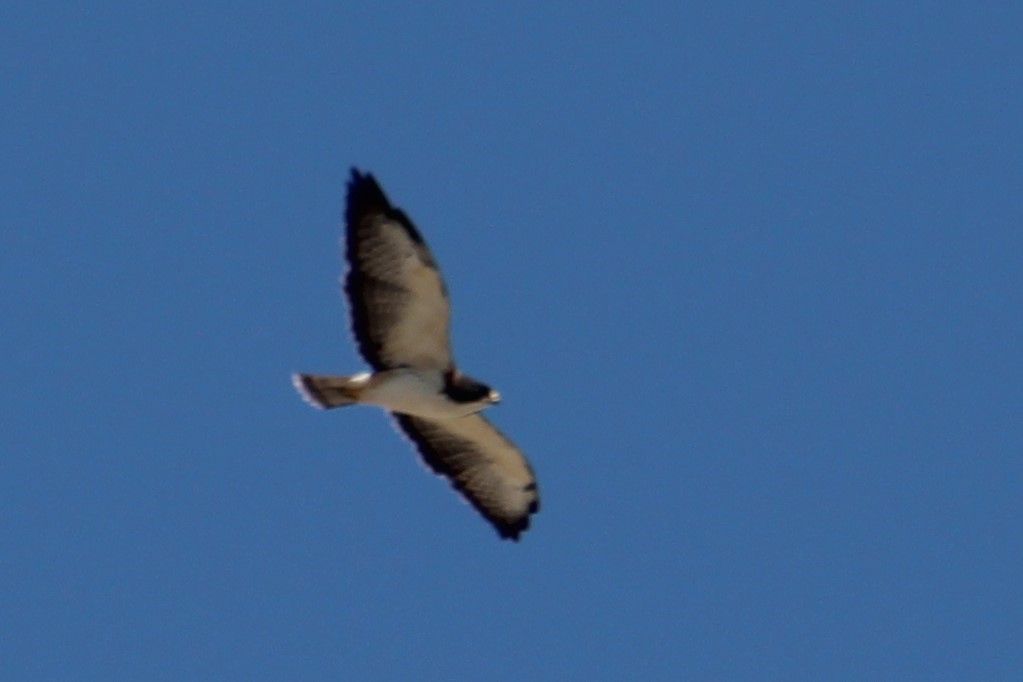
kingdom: Animalia
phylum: Chordata
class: Aves
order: Accipitriformes
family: Accipitridae
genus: Buteo
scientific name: Buteo brachyurus
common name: Short-tailed hawk
